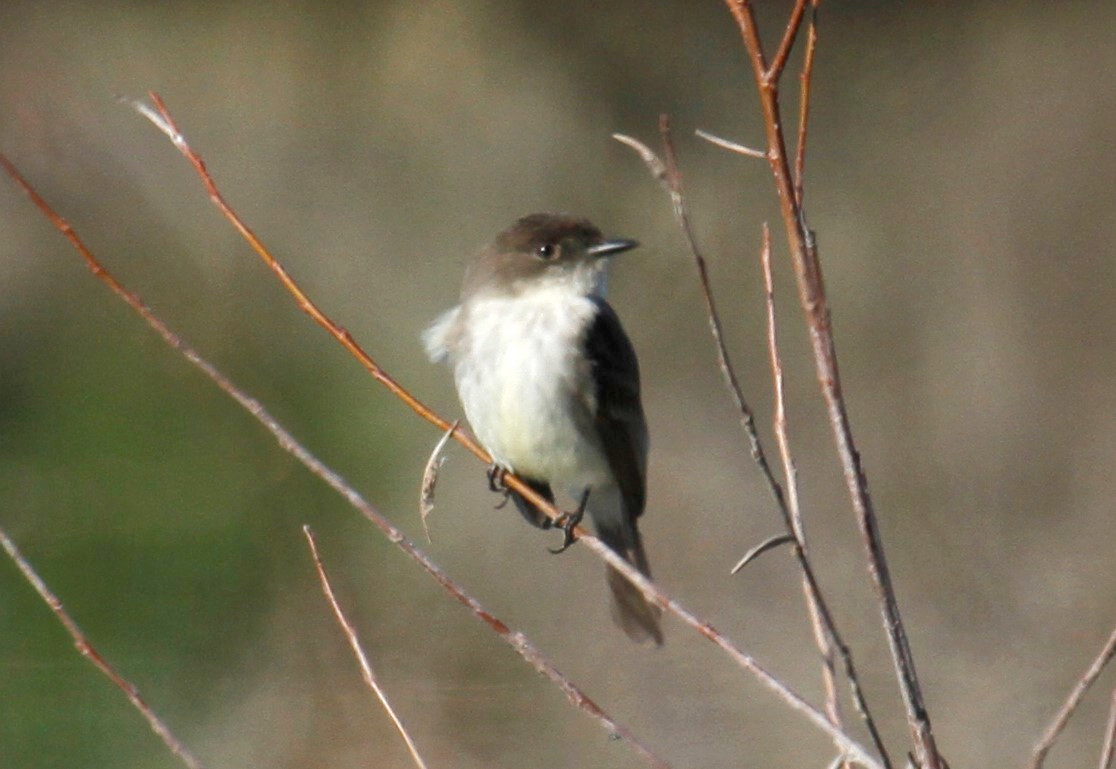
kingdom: Animalia
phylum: Chordata
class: Aves
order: Passeriformes
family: Tyrannidae
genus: Sayornis
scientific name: Sayornis phoebe
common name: Eastern phoebe
